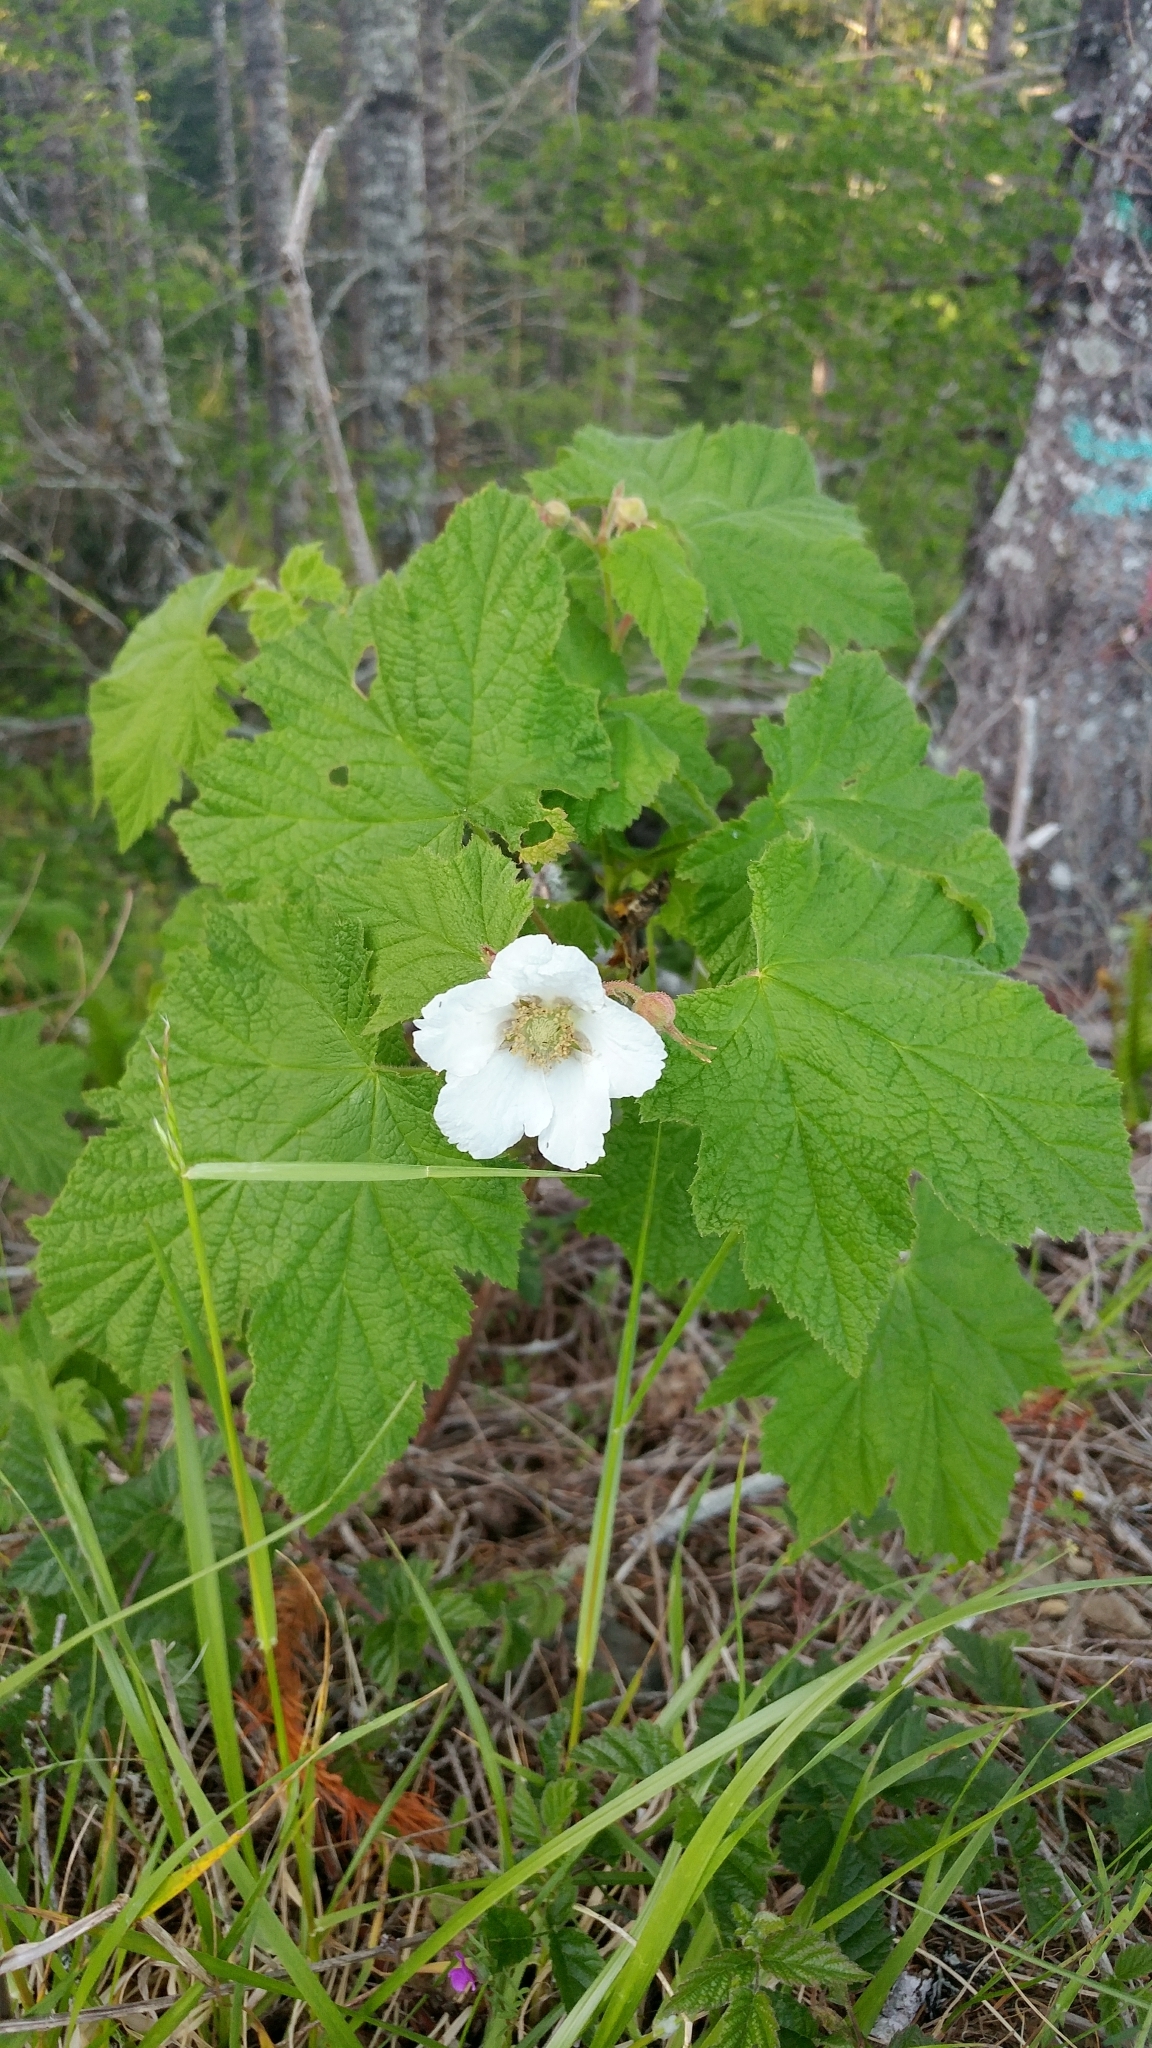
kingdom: Plantae
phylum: Tracheophyta
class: Magnoliopsida
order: Rosales
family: Rosaceae
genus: Rubus
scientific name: Rubus parviflorus
